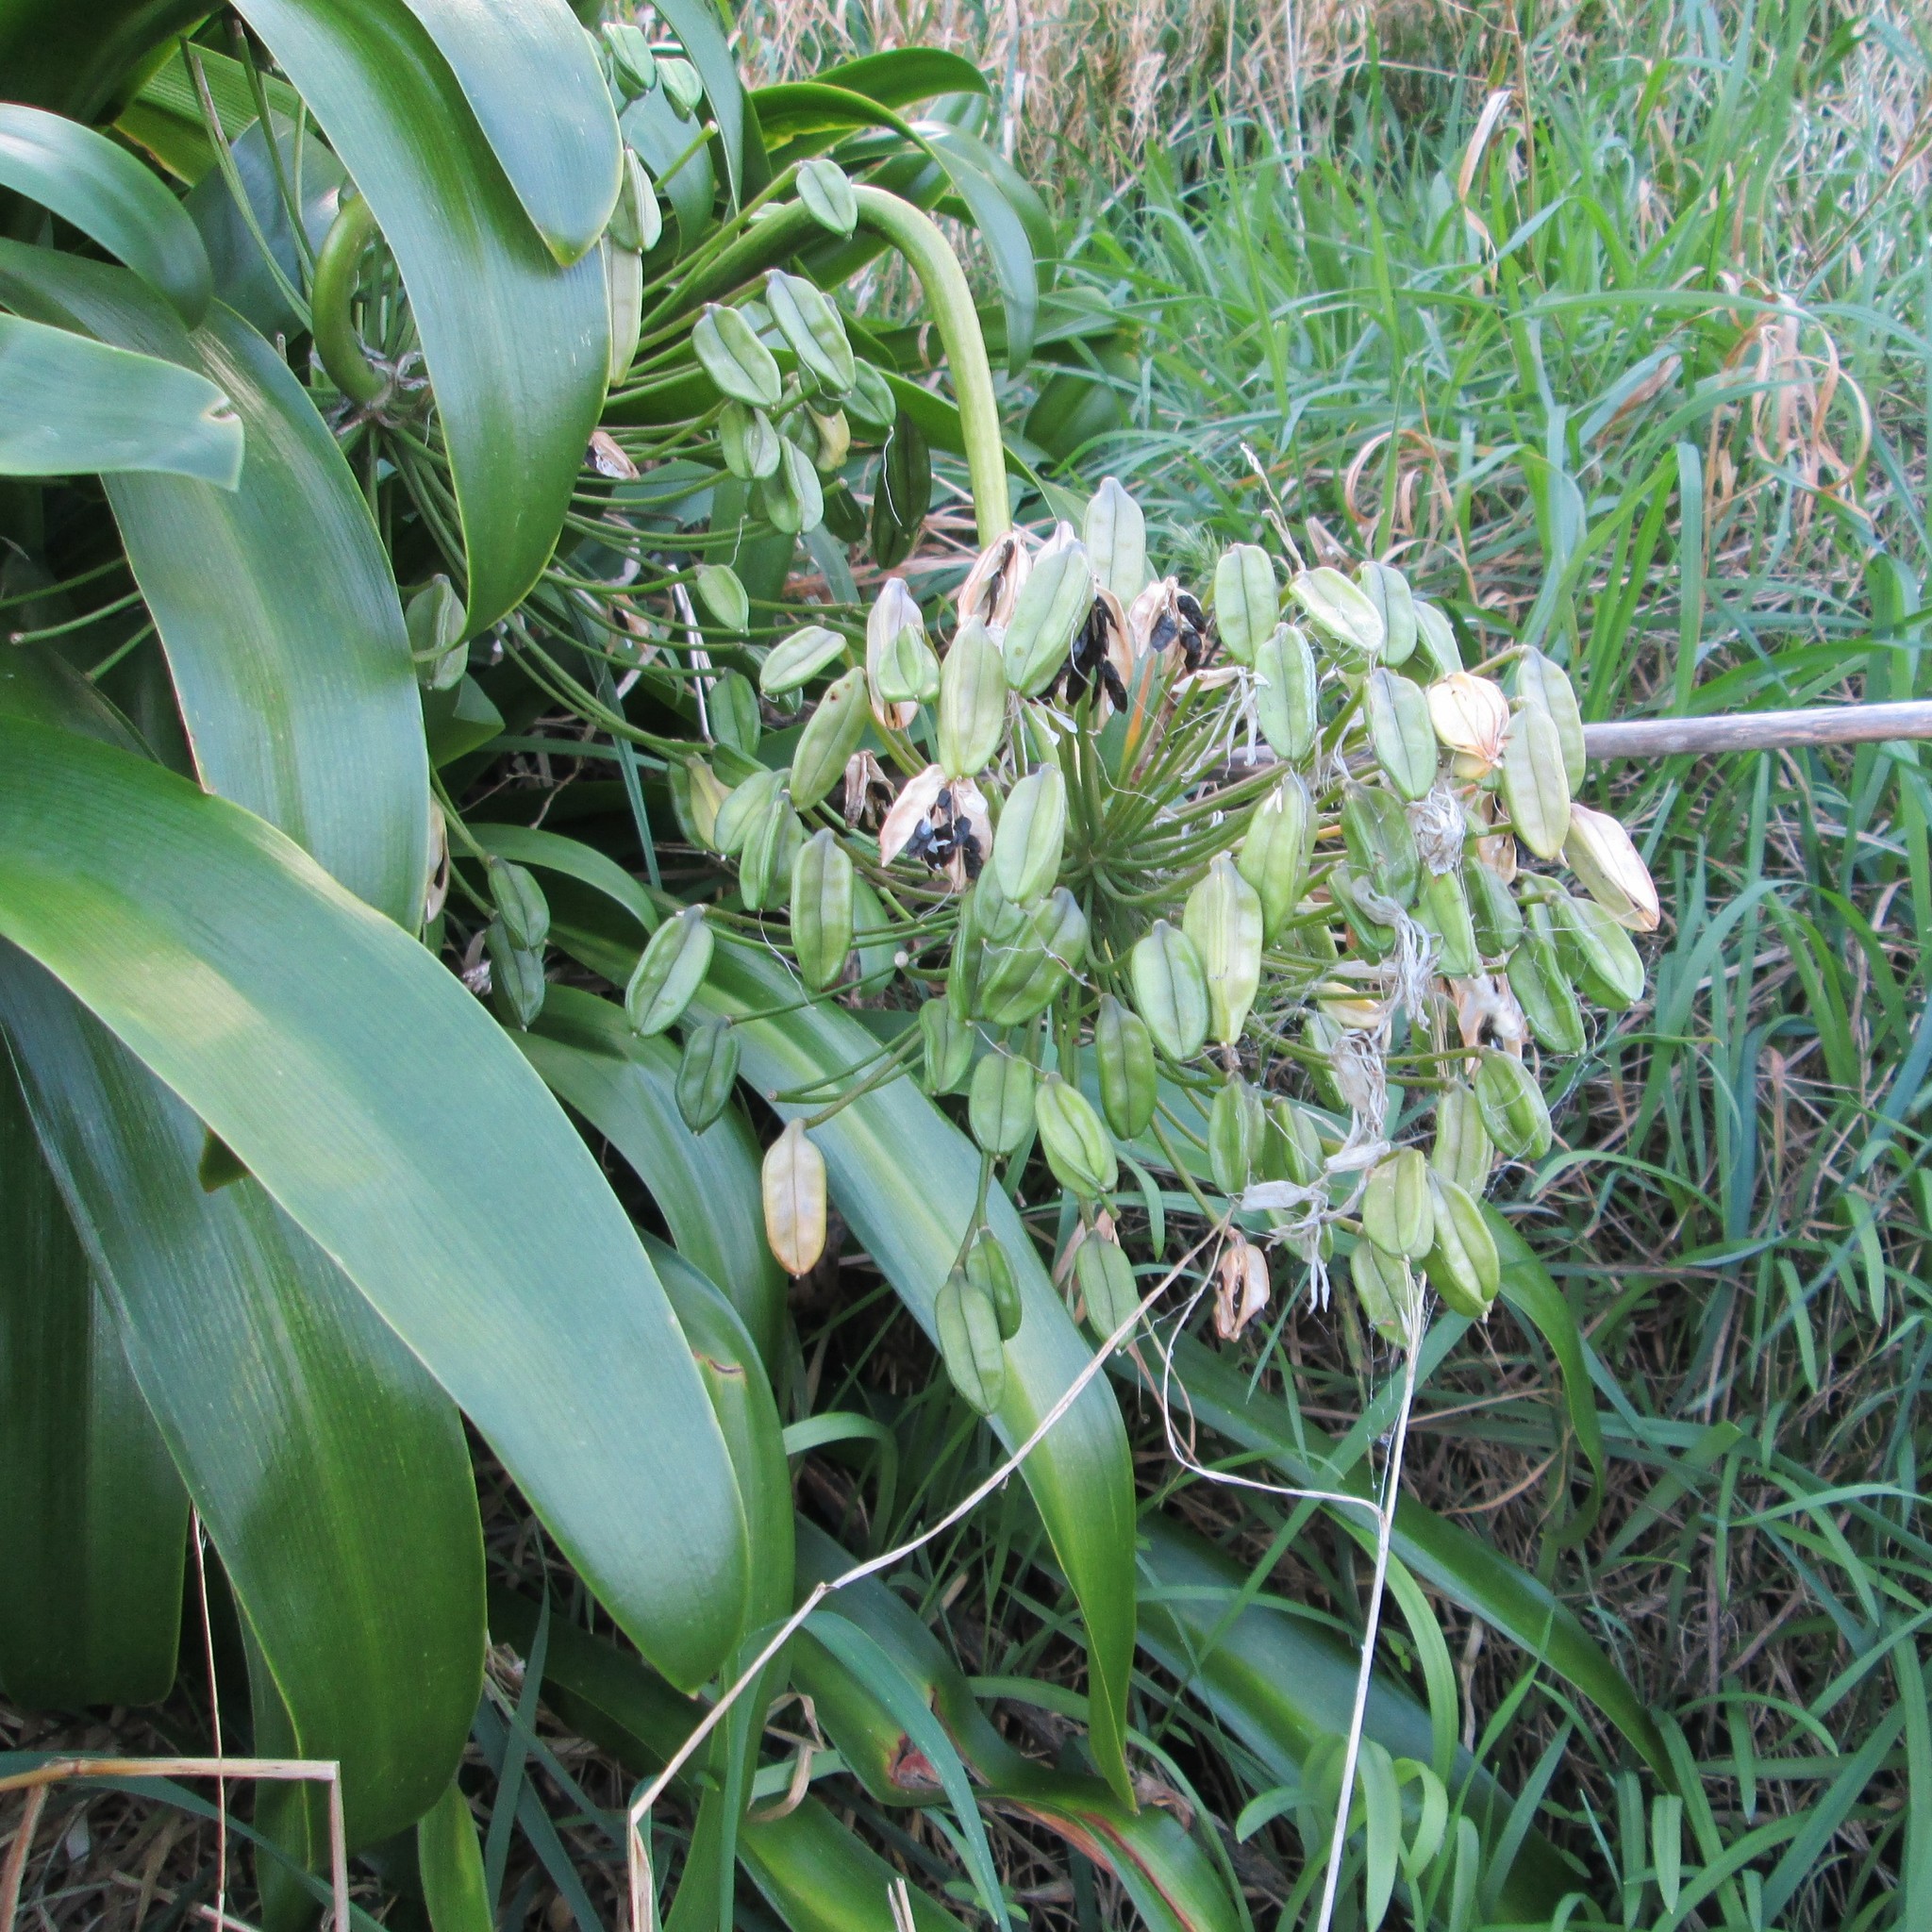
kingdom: Plantae
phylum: Tracheophyta
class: Liliopsida
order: Asparagales
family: Amaryllidaceae
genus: Agapanthus
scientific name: Agapanthus praecox
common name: African-lily
